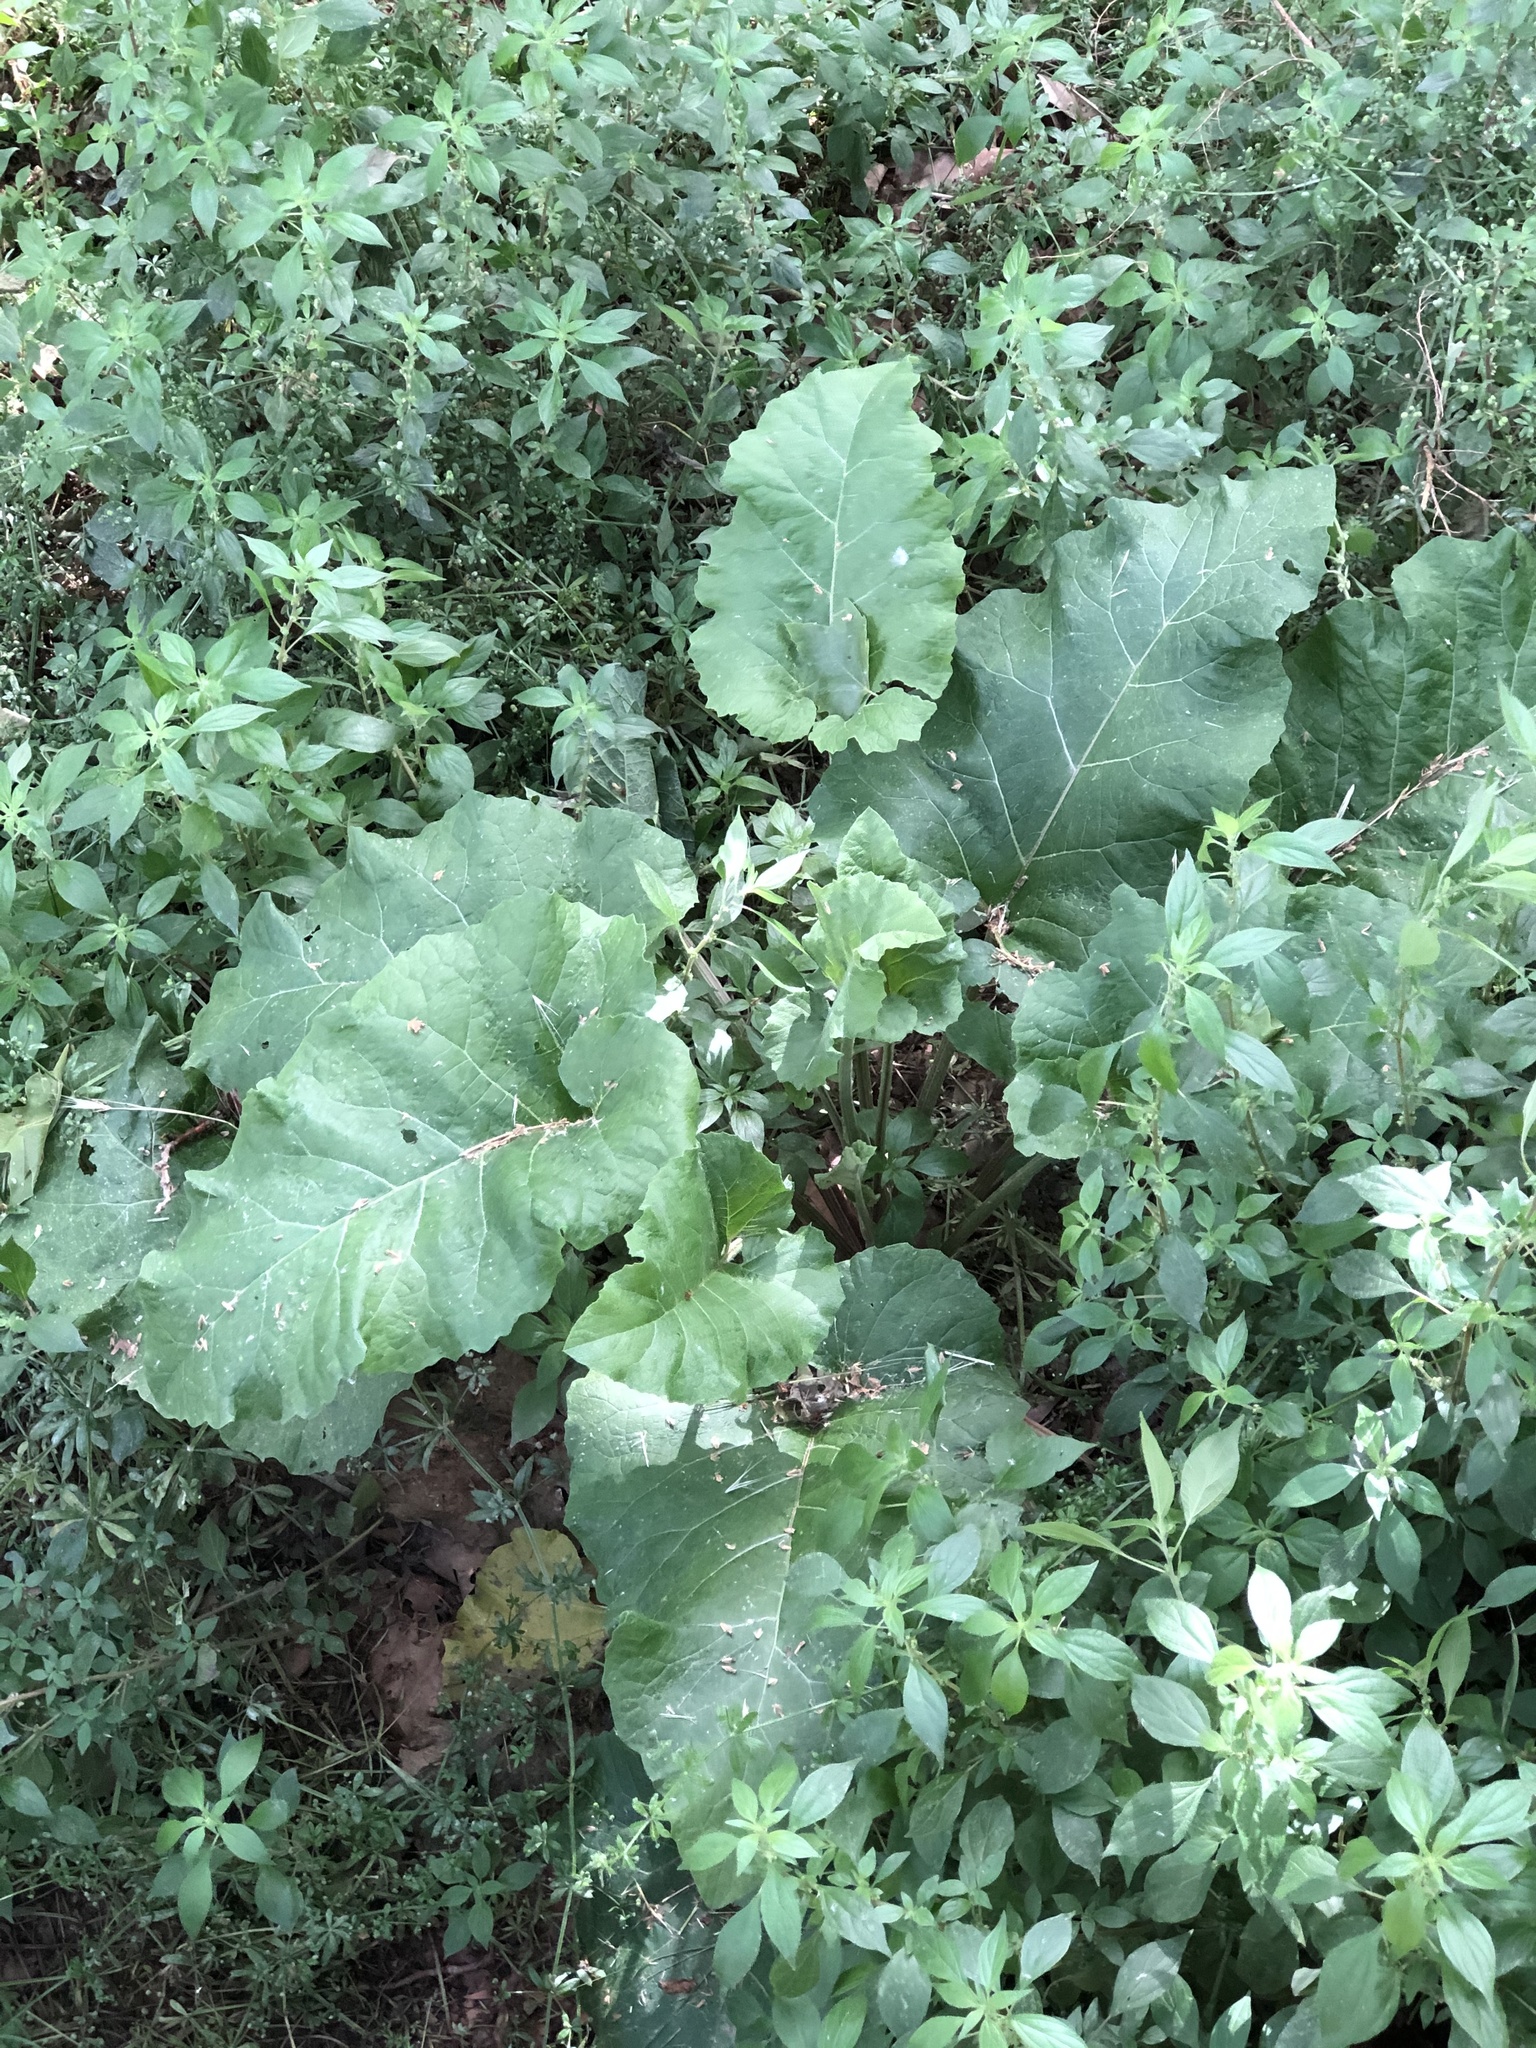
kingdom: Plantae
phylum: Tracheophyta
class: Magnoliopsida
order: Asterales
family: Asteraceae
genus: Arctium
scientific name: Arctium minus
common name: Lesser burdock
